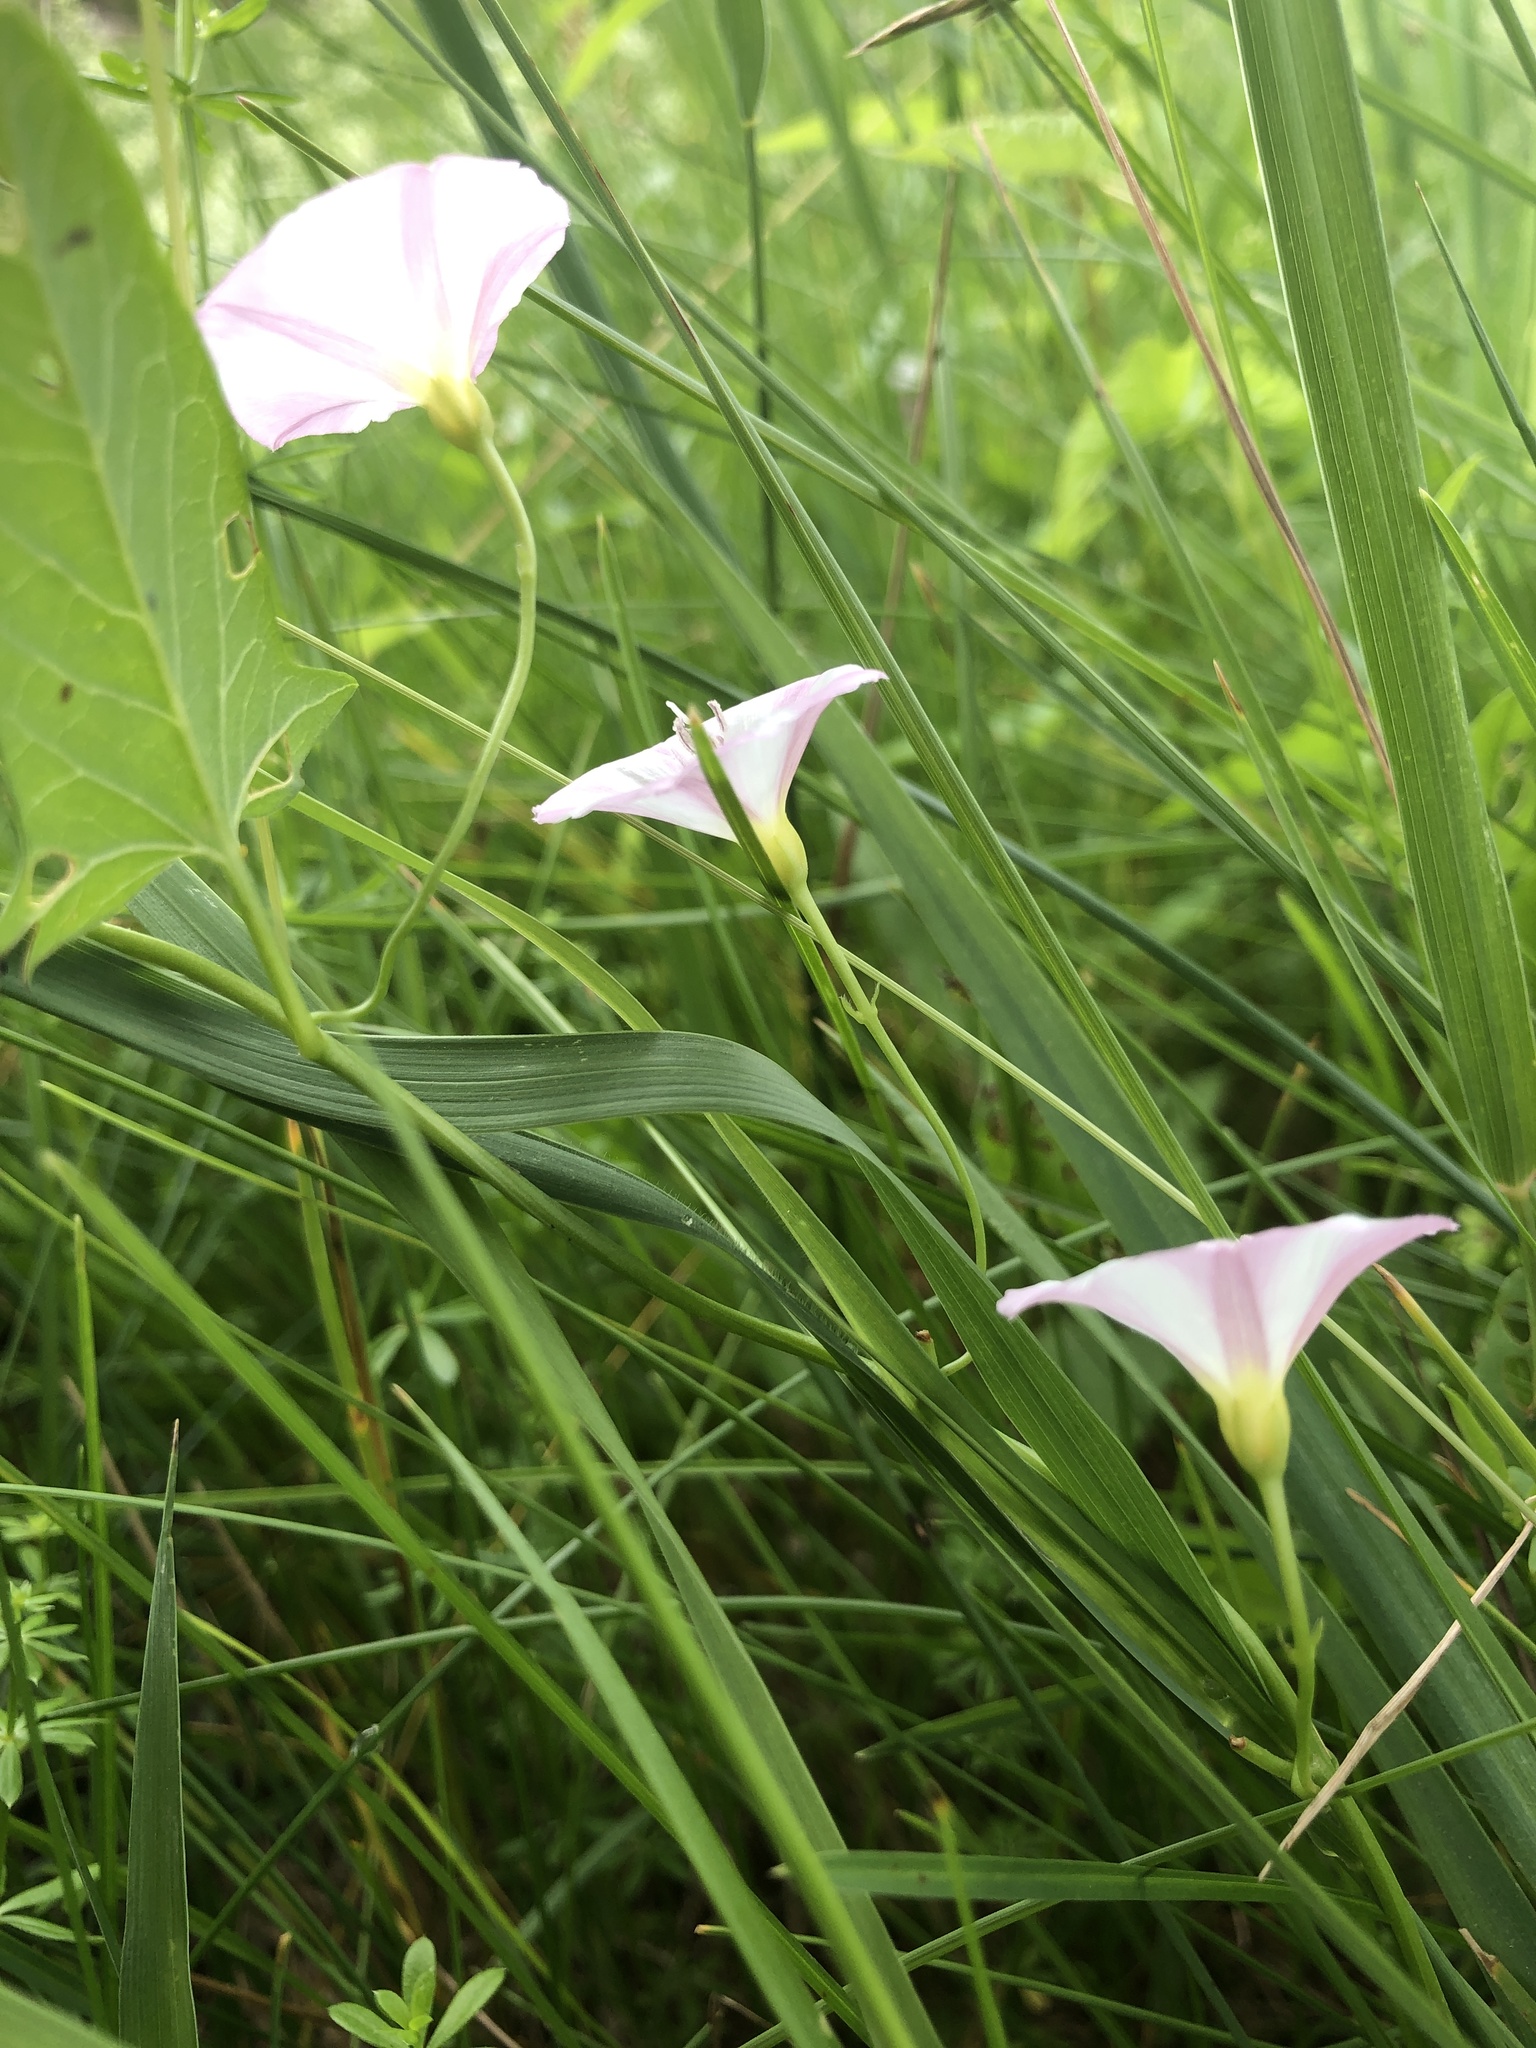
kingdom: Plantae
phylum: Tracheophyta
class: Magnoliopsida
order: Solanales
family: Convolvulaceae
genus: Convolvulus
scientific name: Convolvulus arvensis
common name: Field bindweed
